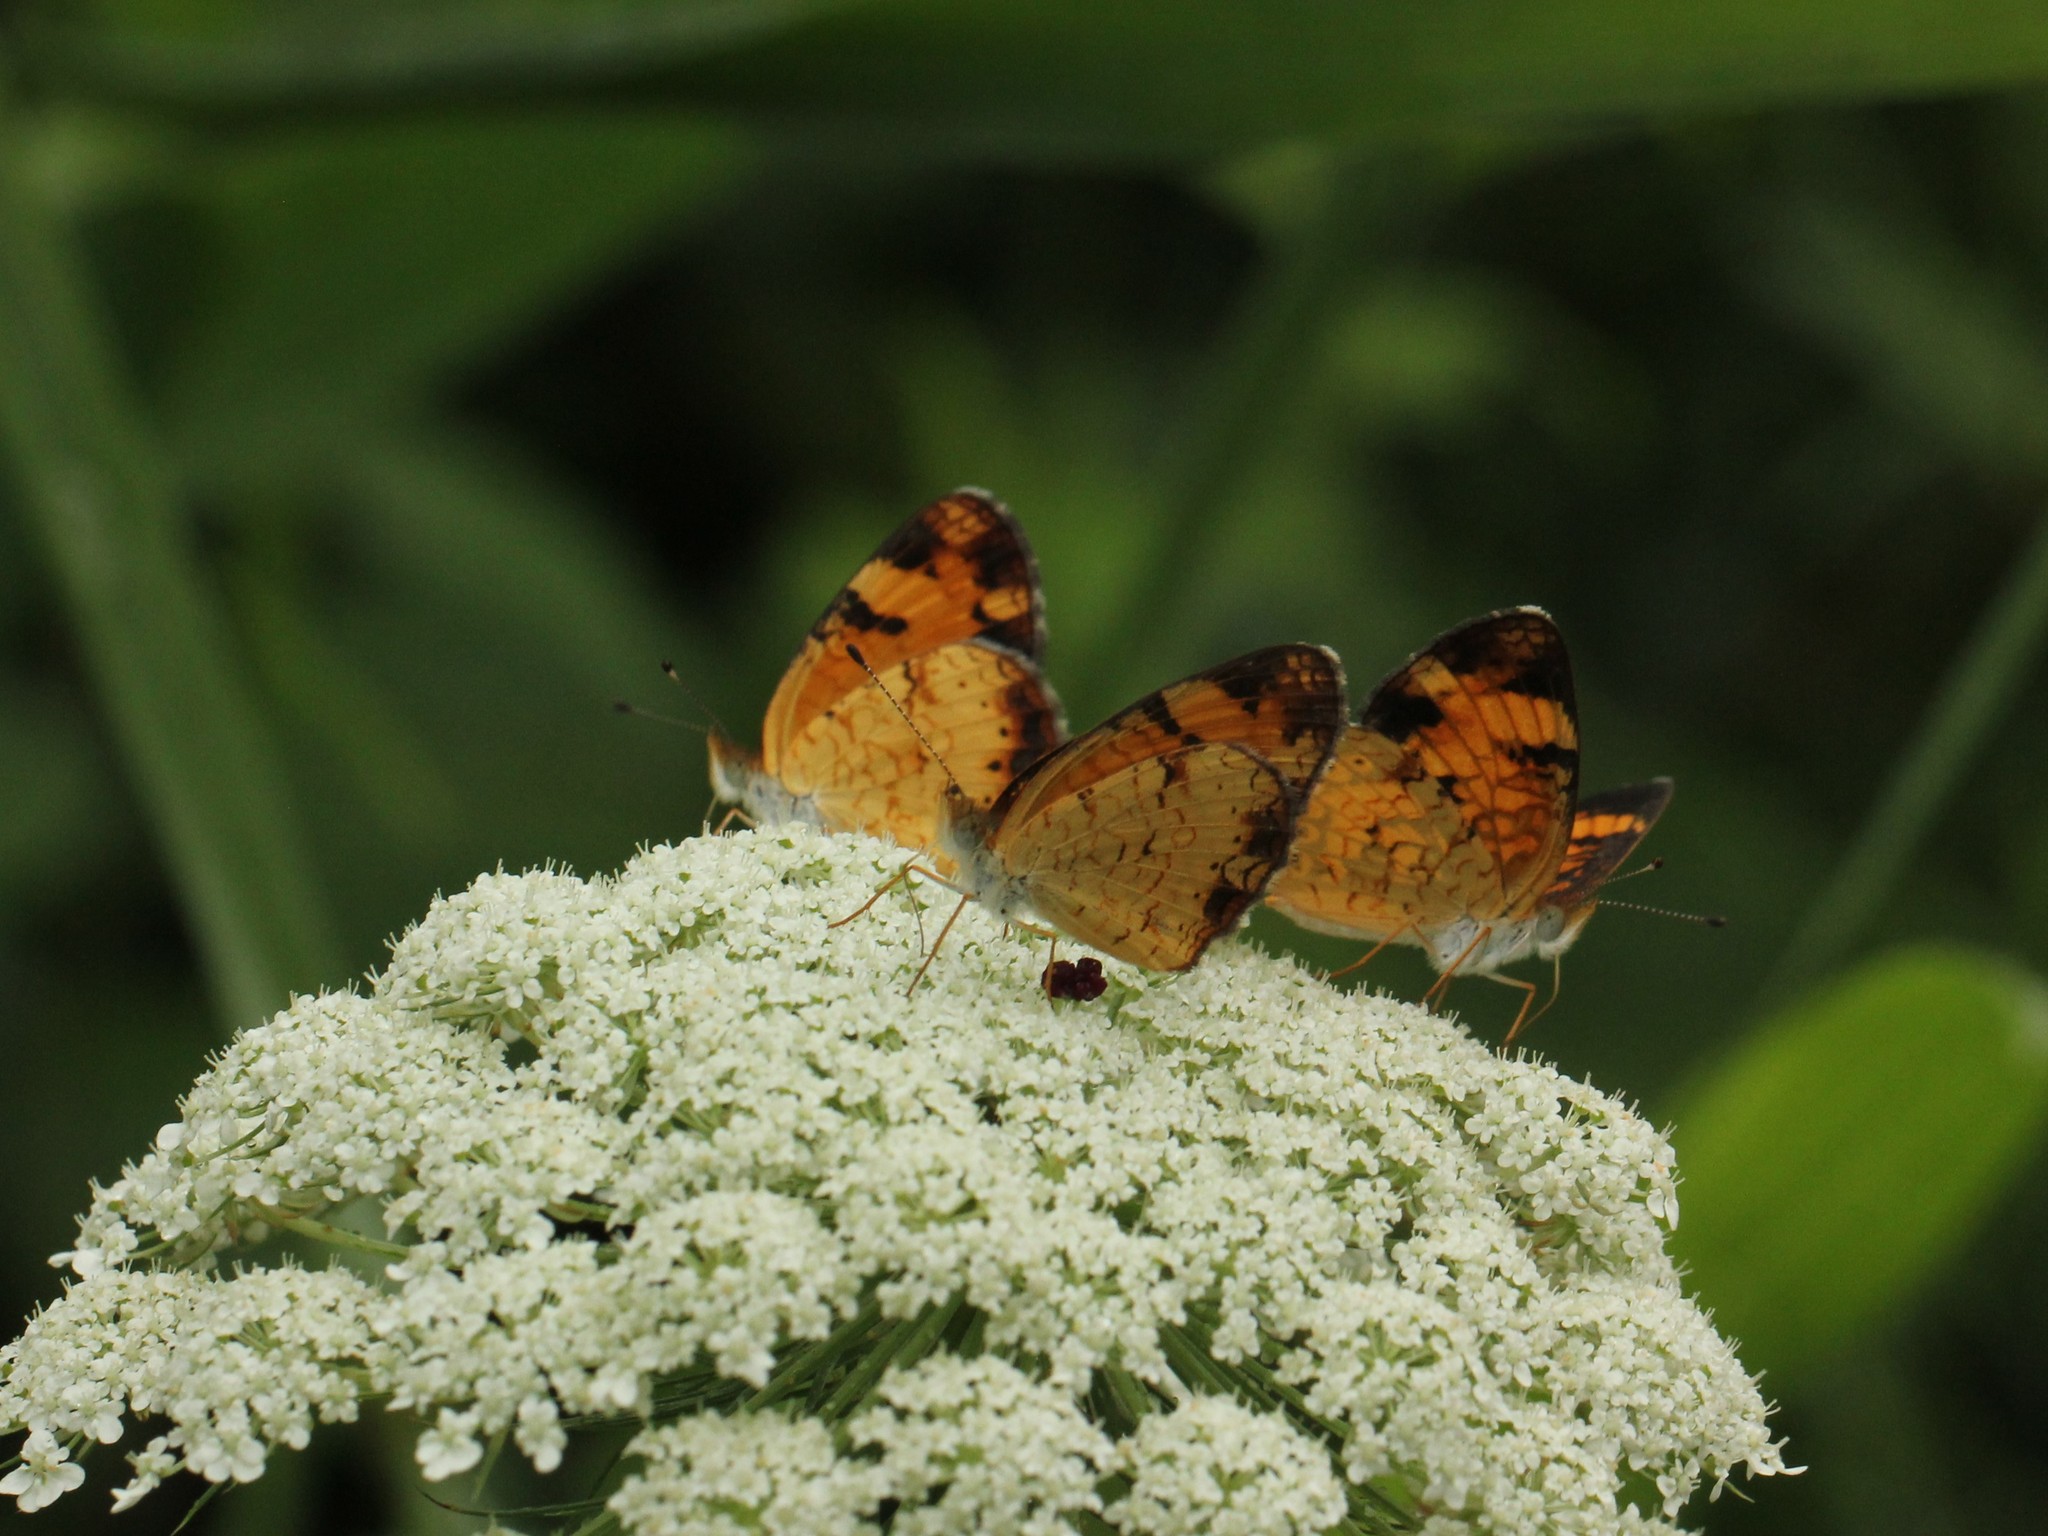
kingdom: Animalia
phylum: Arthropoda
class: Insecta
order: Lepidoptera
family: Nymphalidae
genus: Phyciodes
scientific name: Phyciodes tharos
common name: Pearl crescent
